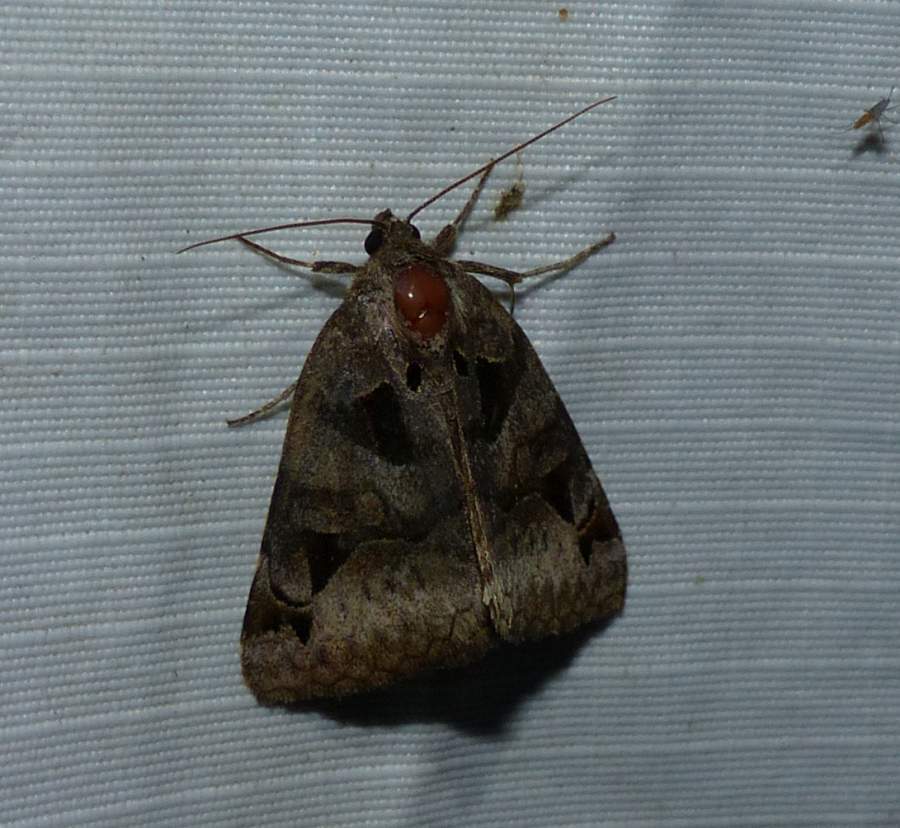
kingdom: Animalia
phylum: Arthropoda
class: Insecta
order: Lepidoptera
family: Erebidae
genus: Euclidia
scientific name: Euclidia cuspidea
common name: Toothed somberwing
